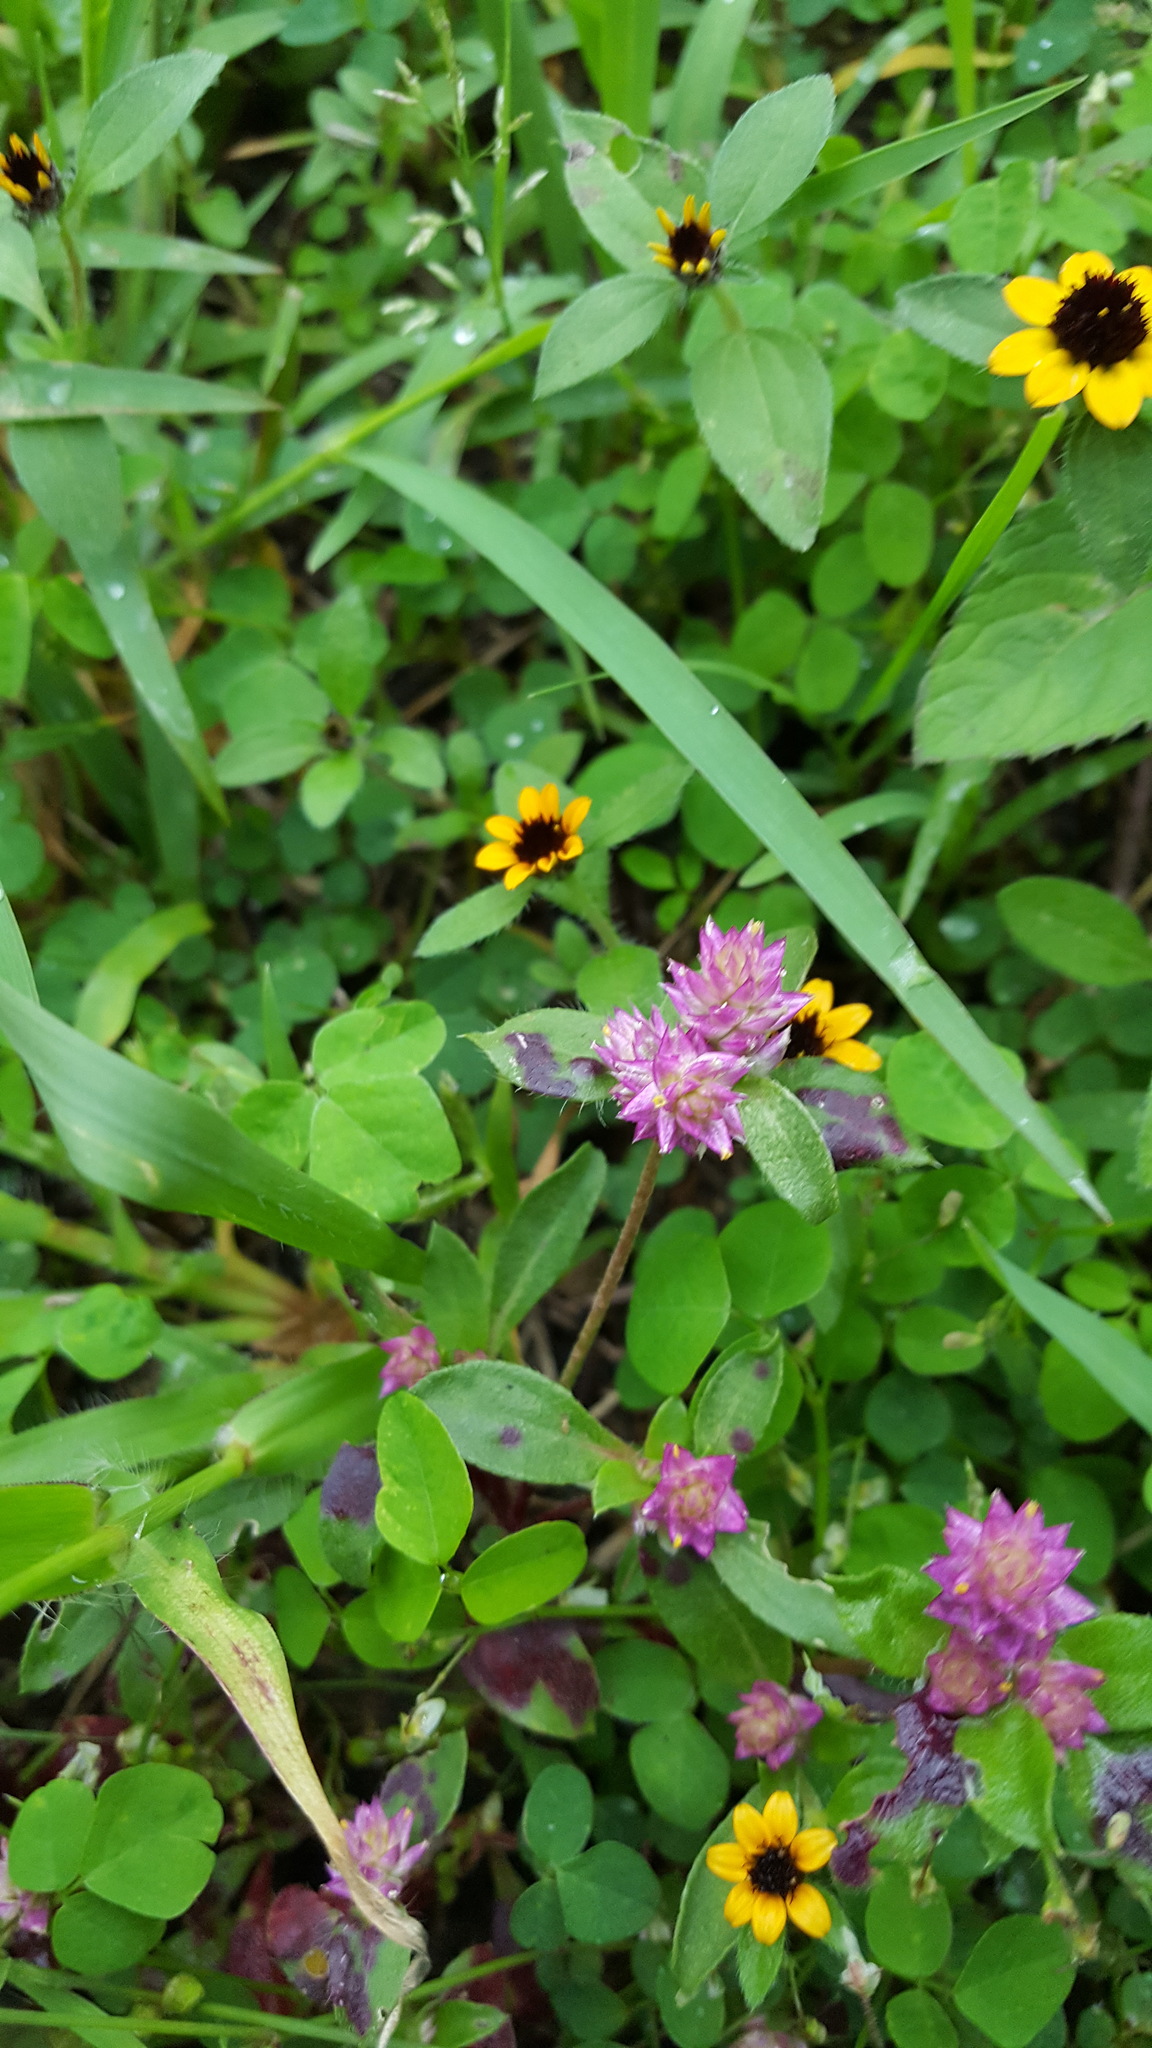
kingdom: Plantae
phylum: Tracheophyta
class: Magnoliopsida
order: Caryophyllales
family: Amaranthaceae
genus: Gomphrena
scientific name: Gomphrena serrata
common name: Arrasa con todo
